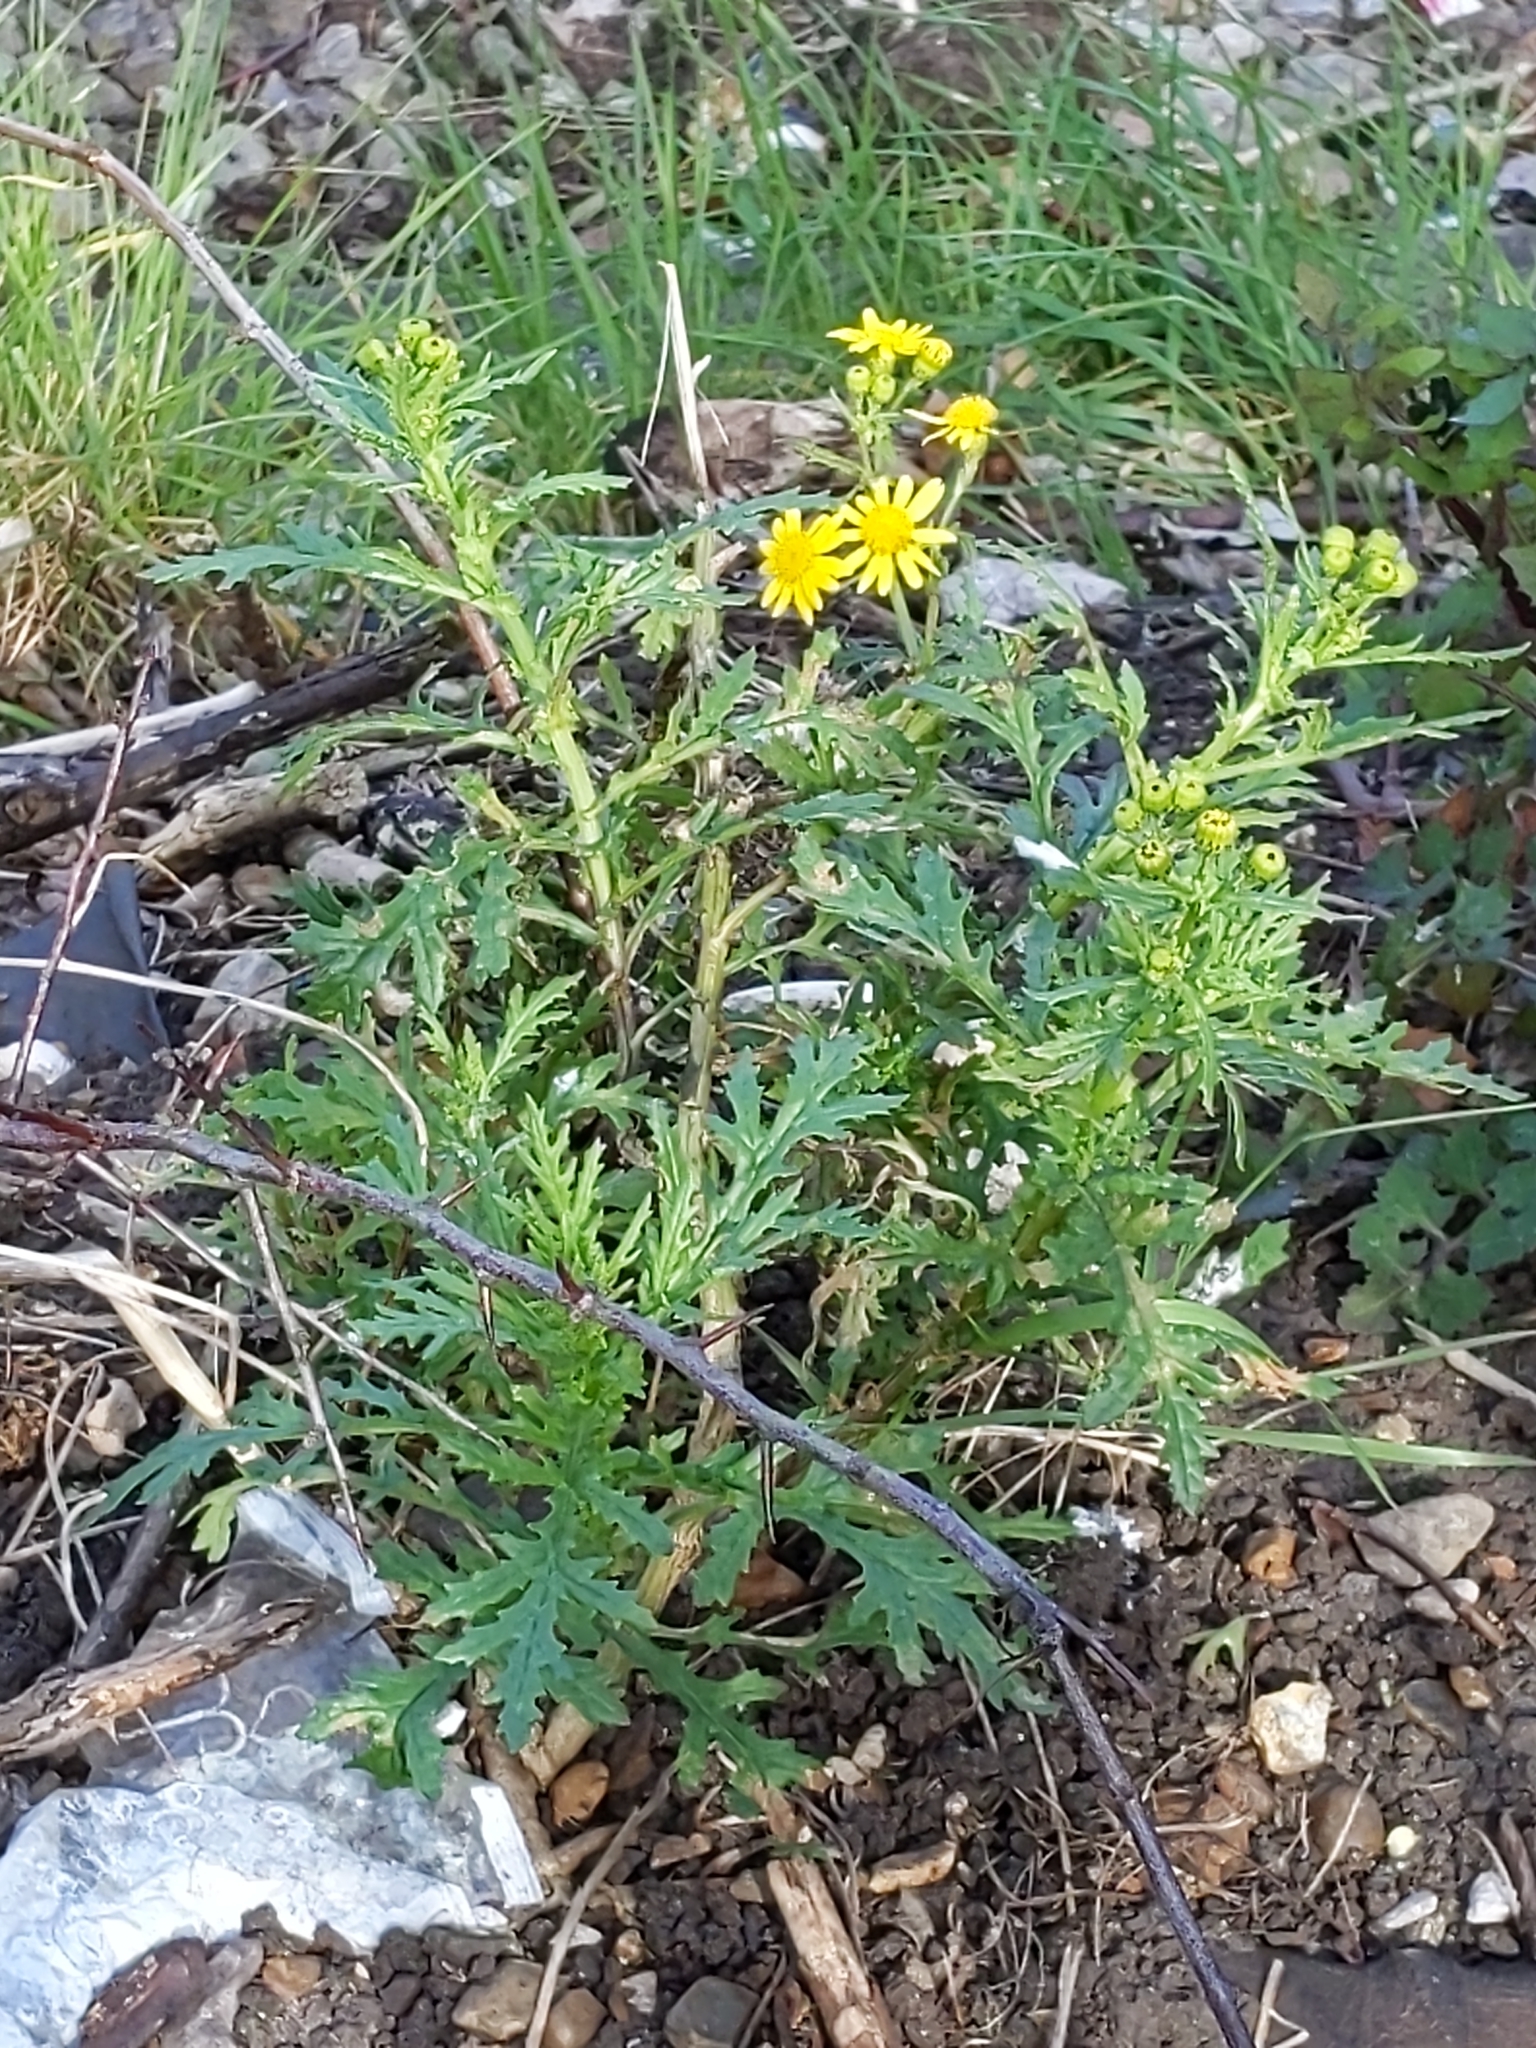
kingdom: Plantae
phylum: Tracheophyta
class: Magnoliopsida
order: Asterales
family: Asteraceae
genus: Senecio
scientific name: Senecio squalidus
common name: Oxford ragwort
